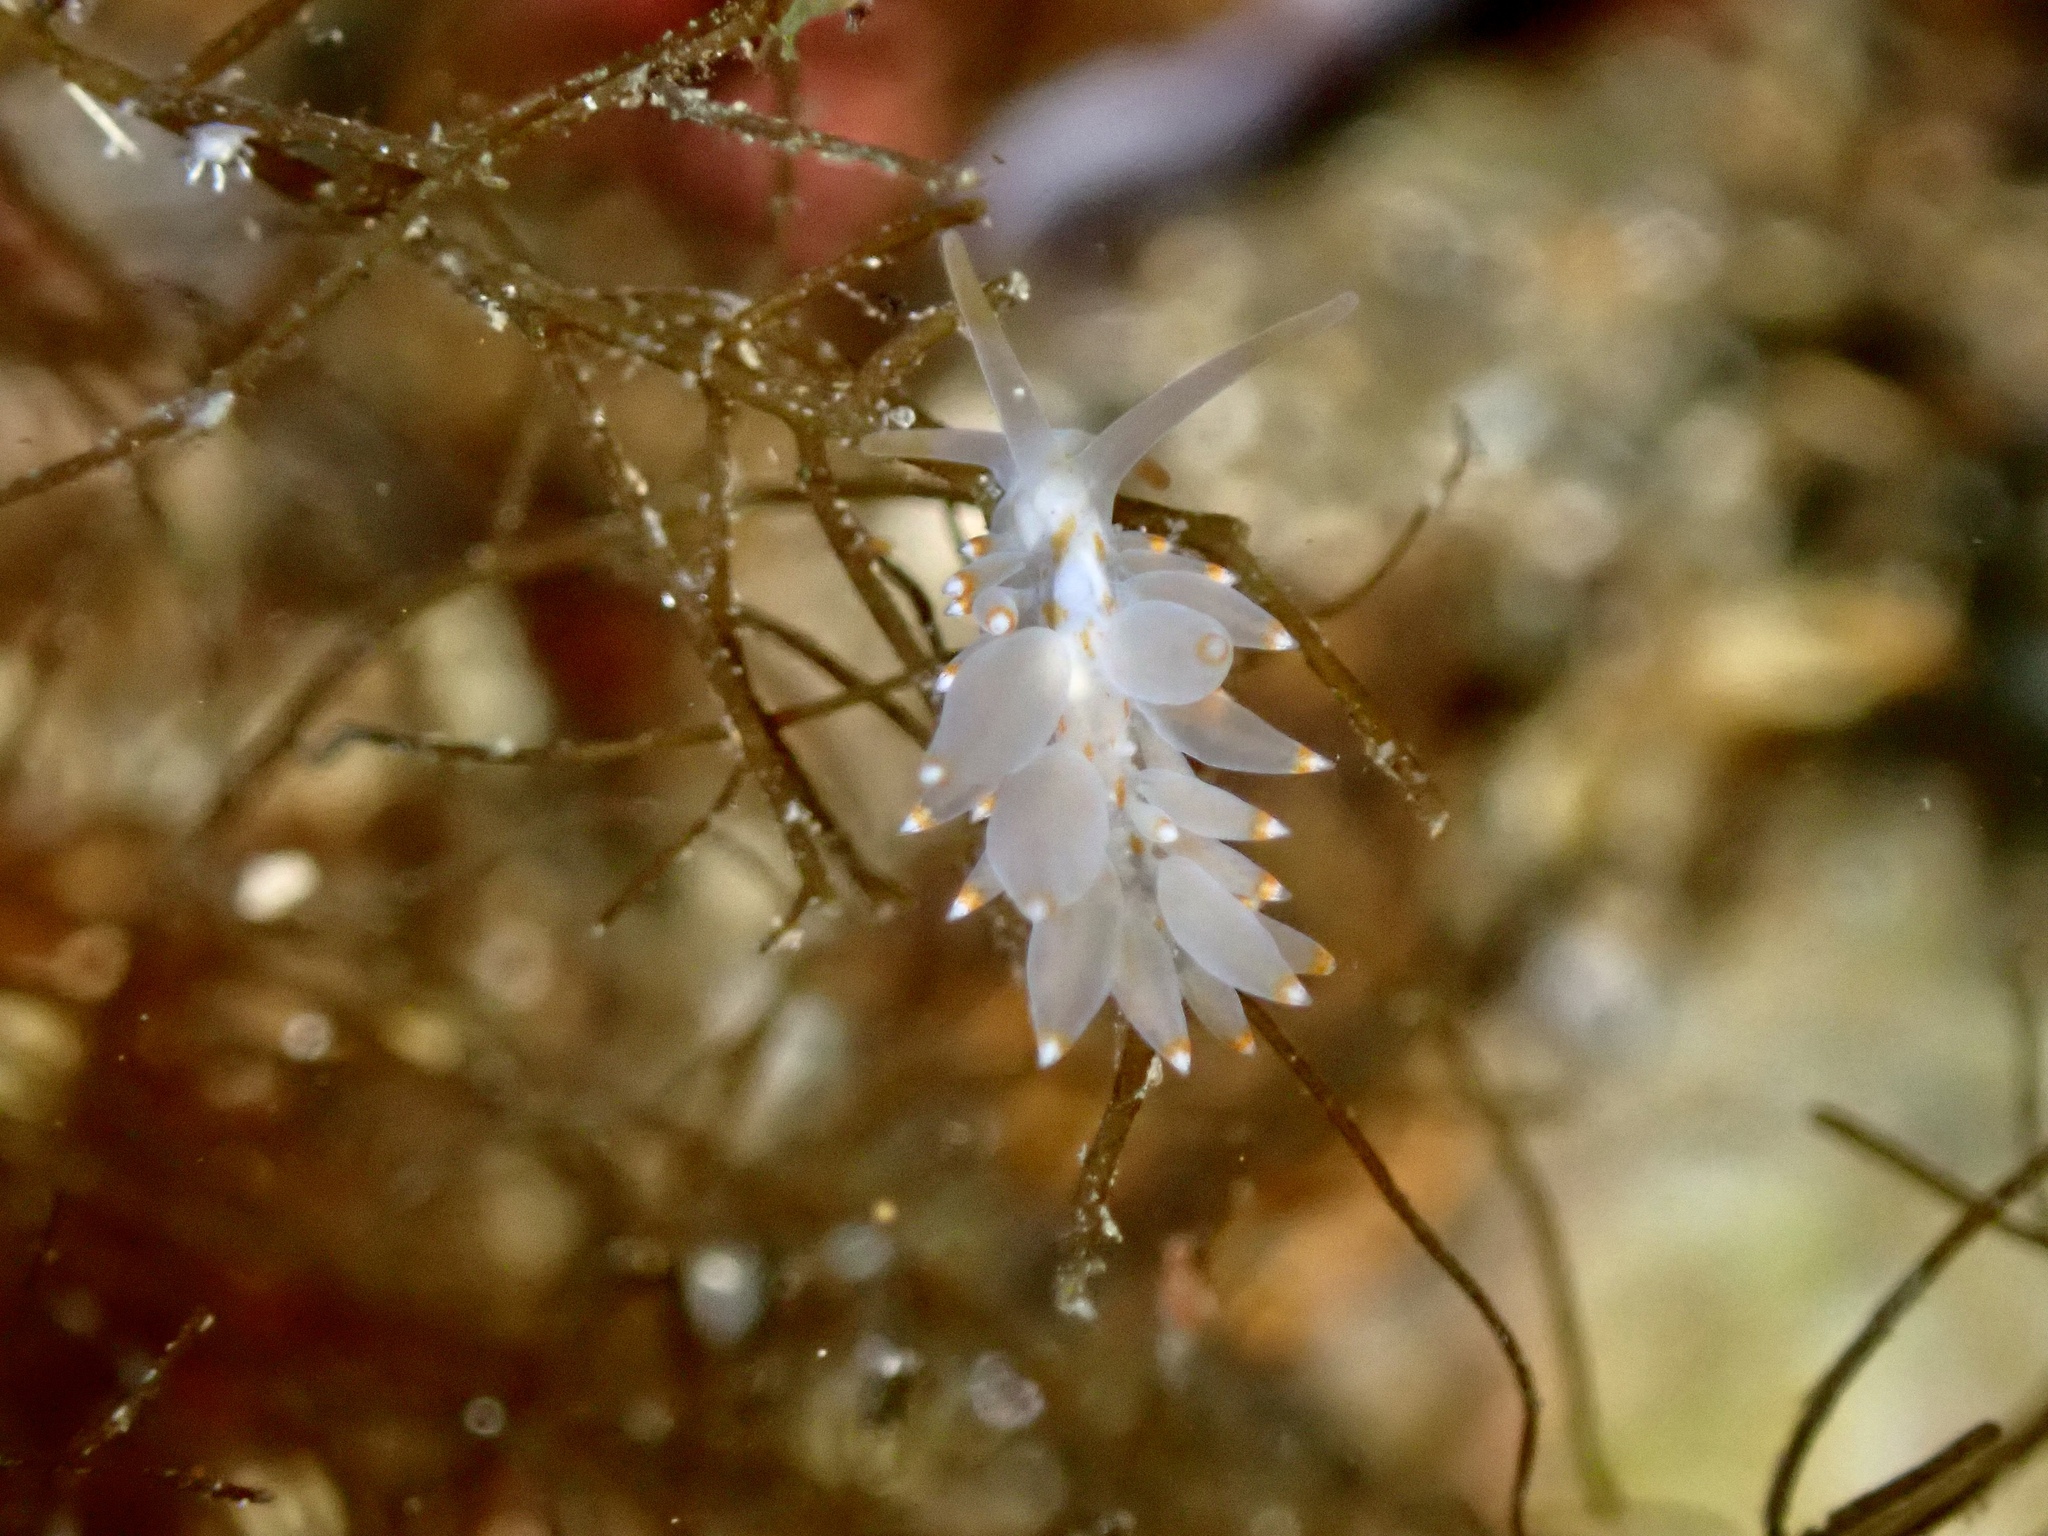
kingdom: Animalia
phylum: Mollusca
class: Gastropoda
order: Nudibranchia
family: Eubranchidae
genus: Amphorina
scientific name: Amphorina andra
